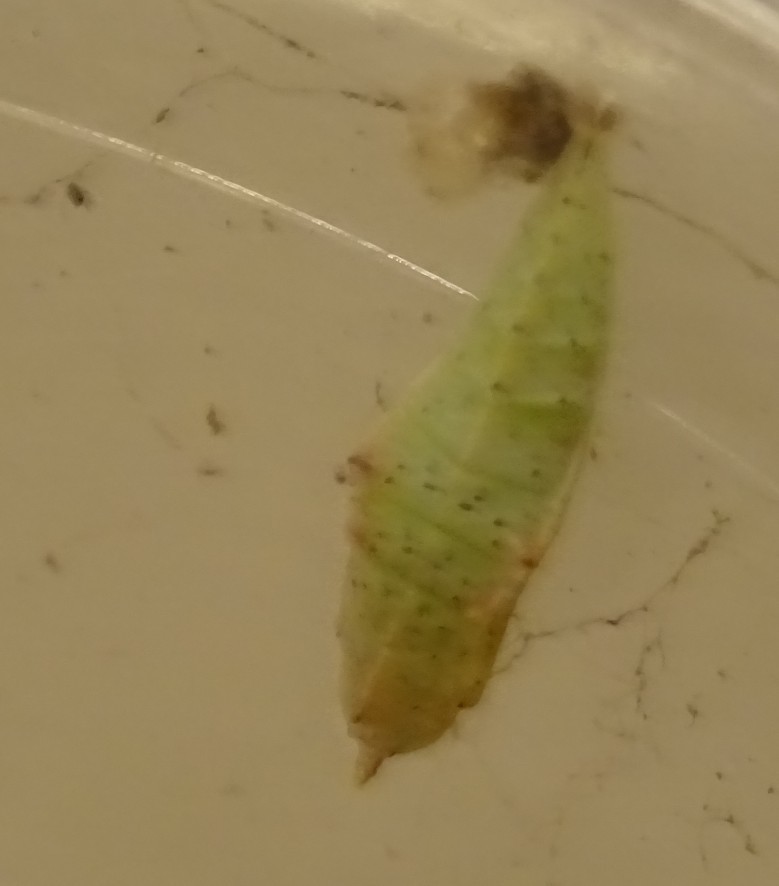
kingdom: Animalia
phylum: Arthropoda
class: Insecta
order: Lepidoptera
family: Pieridae
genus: Pieris
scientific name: Pieris rapae
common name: Small white
